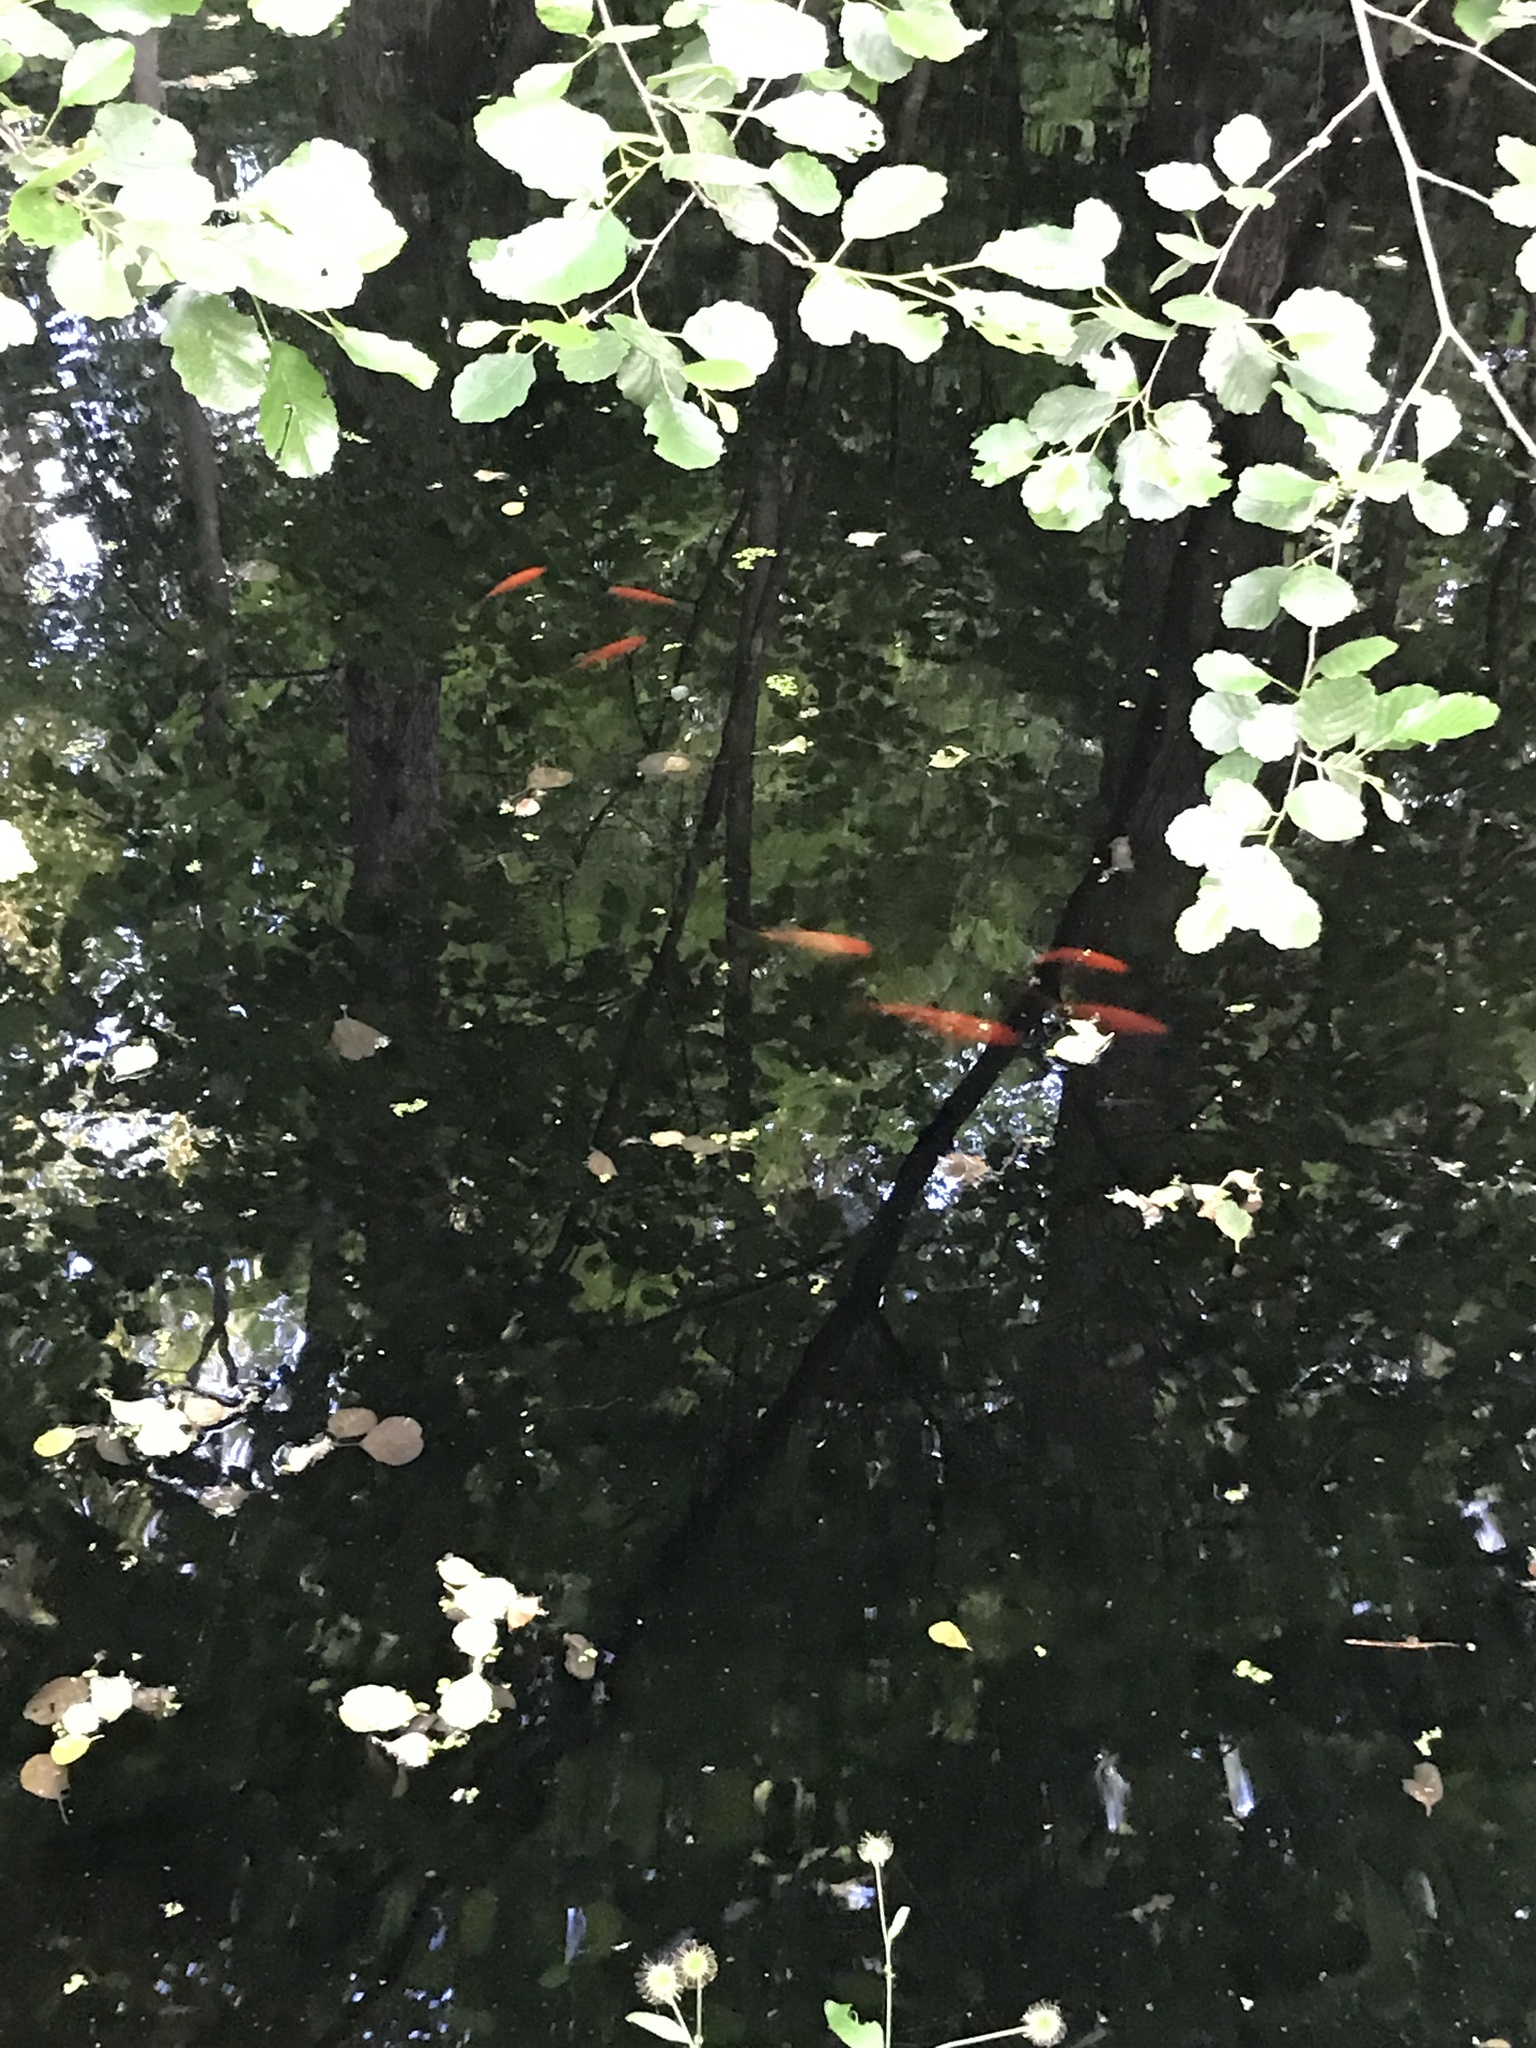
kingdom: Animalia
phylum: Chordata
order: Cypriniformes
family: Cyprinidae
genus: Carassius
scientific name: Carassius auratus
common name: Goldfish
